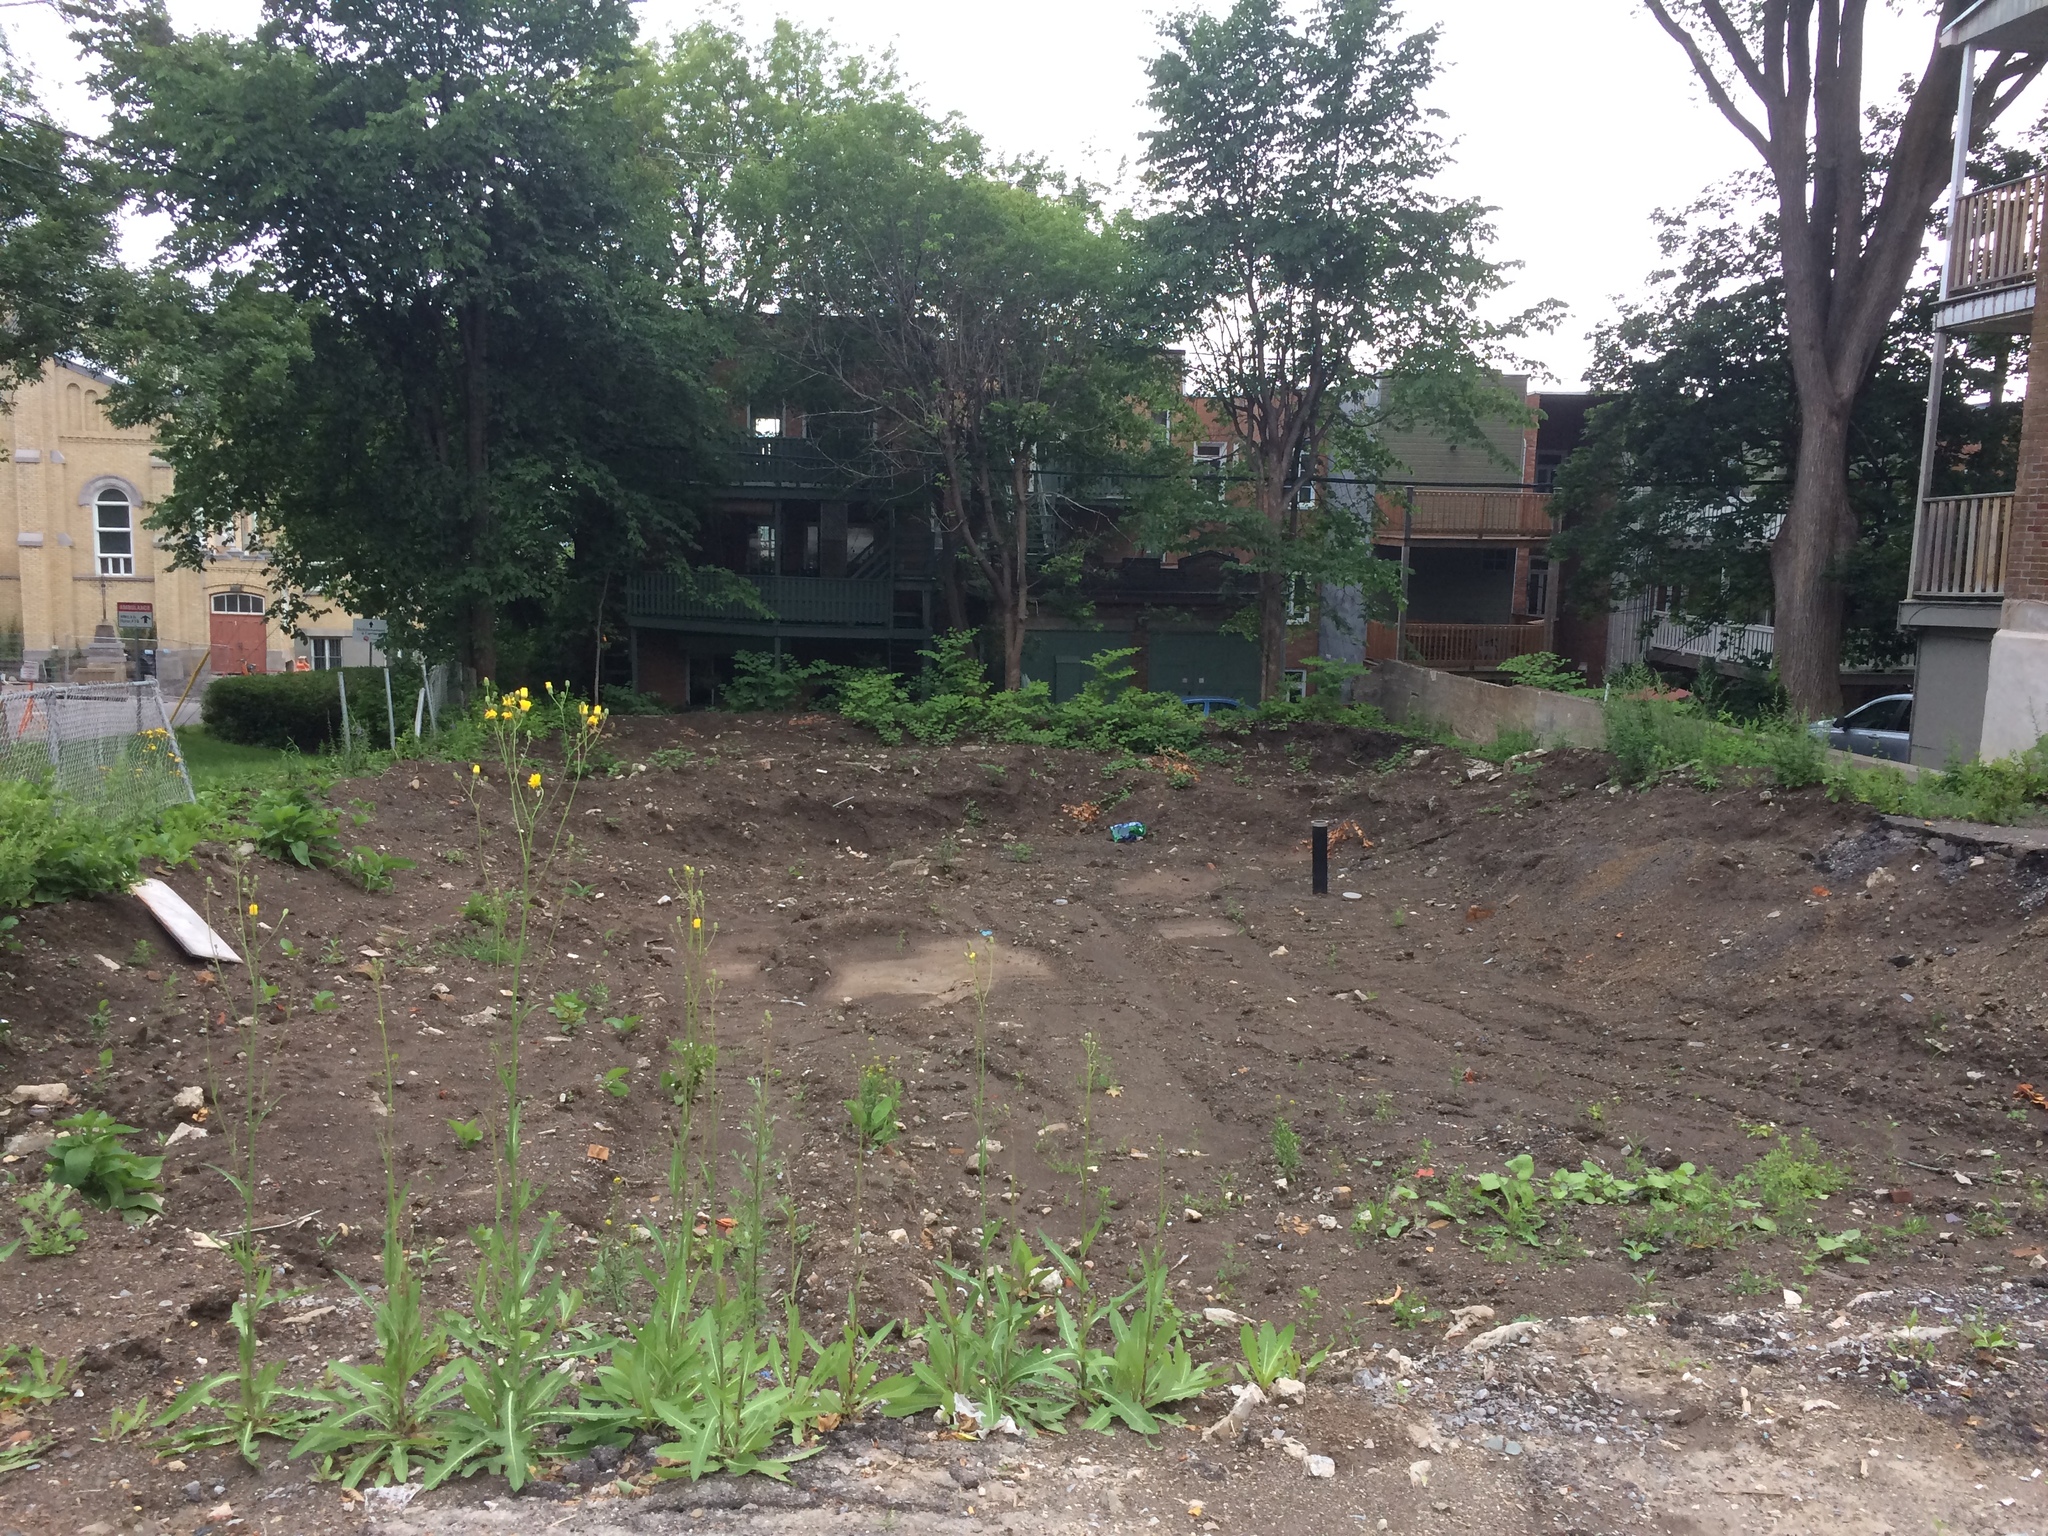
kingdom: Plantae
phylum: Tracheophyta
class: Magnoliopsida
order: Caryophyllales
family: Polygonaceae
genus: Reynoutria
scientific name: Reynoutria japonica
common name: Japanese knotweed
